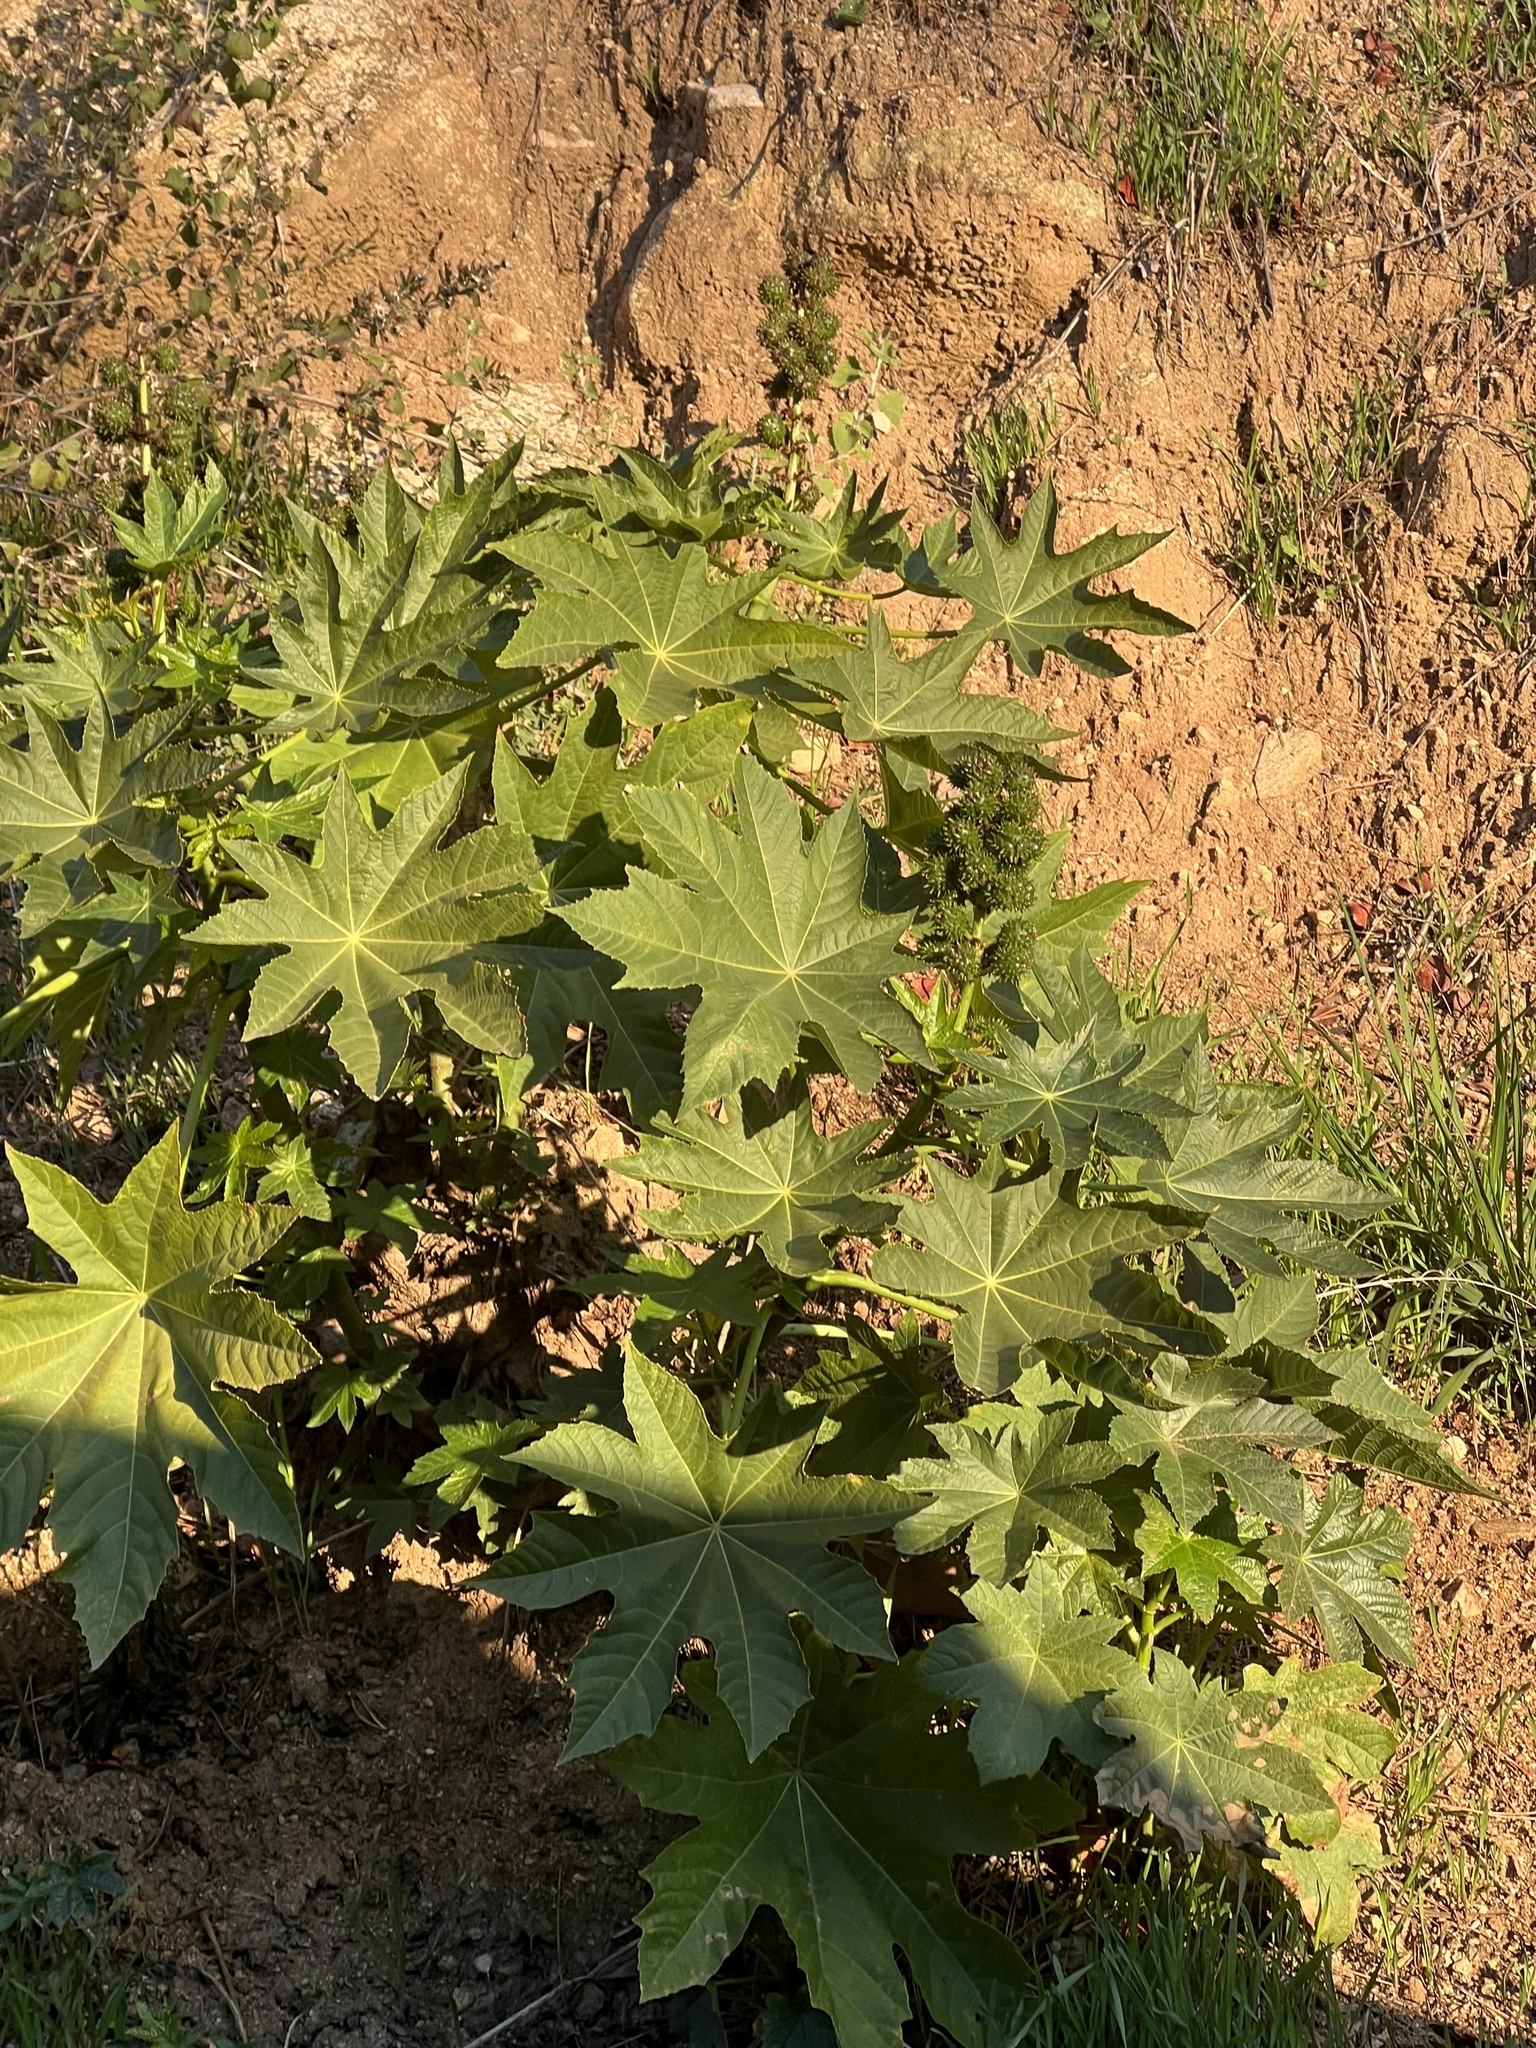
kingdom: Plantae
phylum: Tracheophyta
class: Magnoliopsida
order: Malpighiales
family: Euphorbiaceae
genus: Ricinus
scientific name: Ricinus communis
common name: Castor-oil-plant
